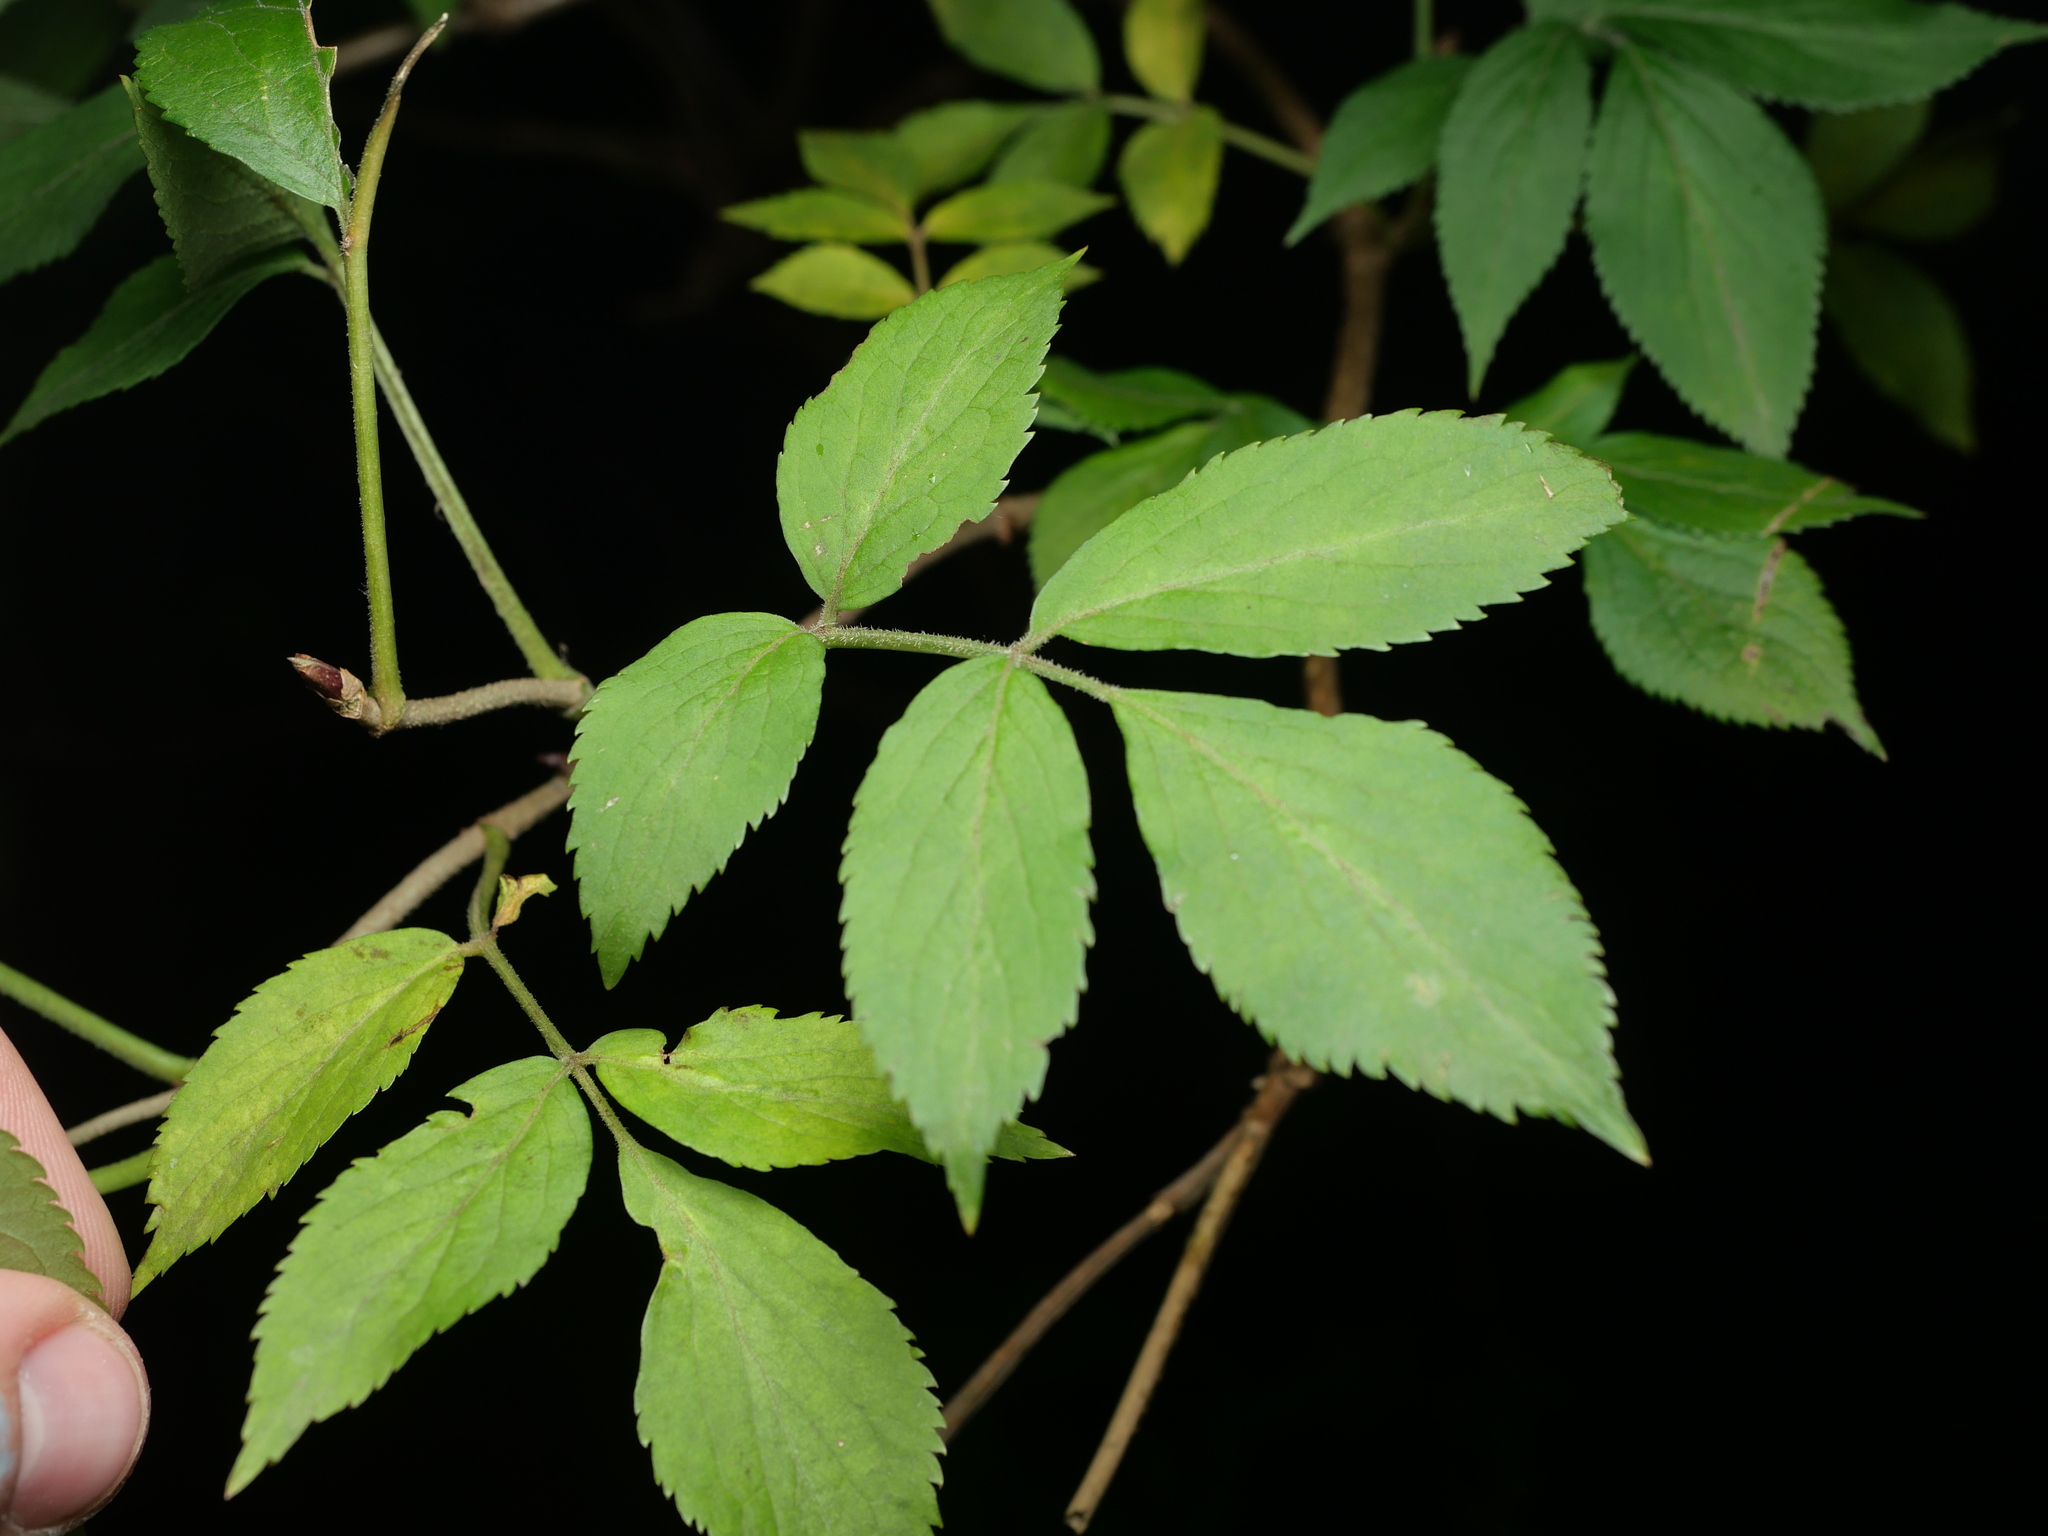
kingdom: Plantae
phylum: Tracheophyta
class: Magnoliopsida
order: Dipsacales
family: Viburnaceae
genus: Sambucus
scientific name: Sambucus nigra
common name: Elder
